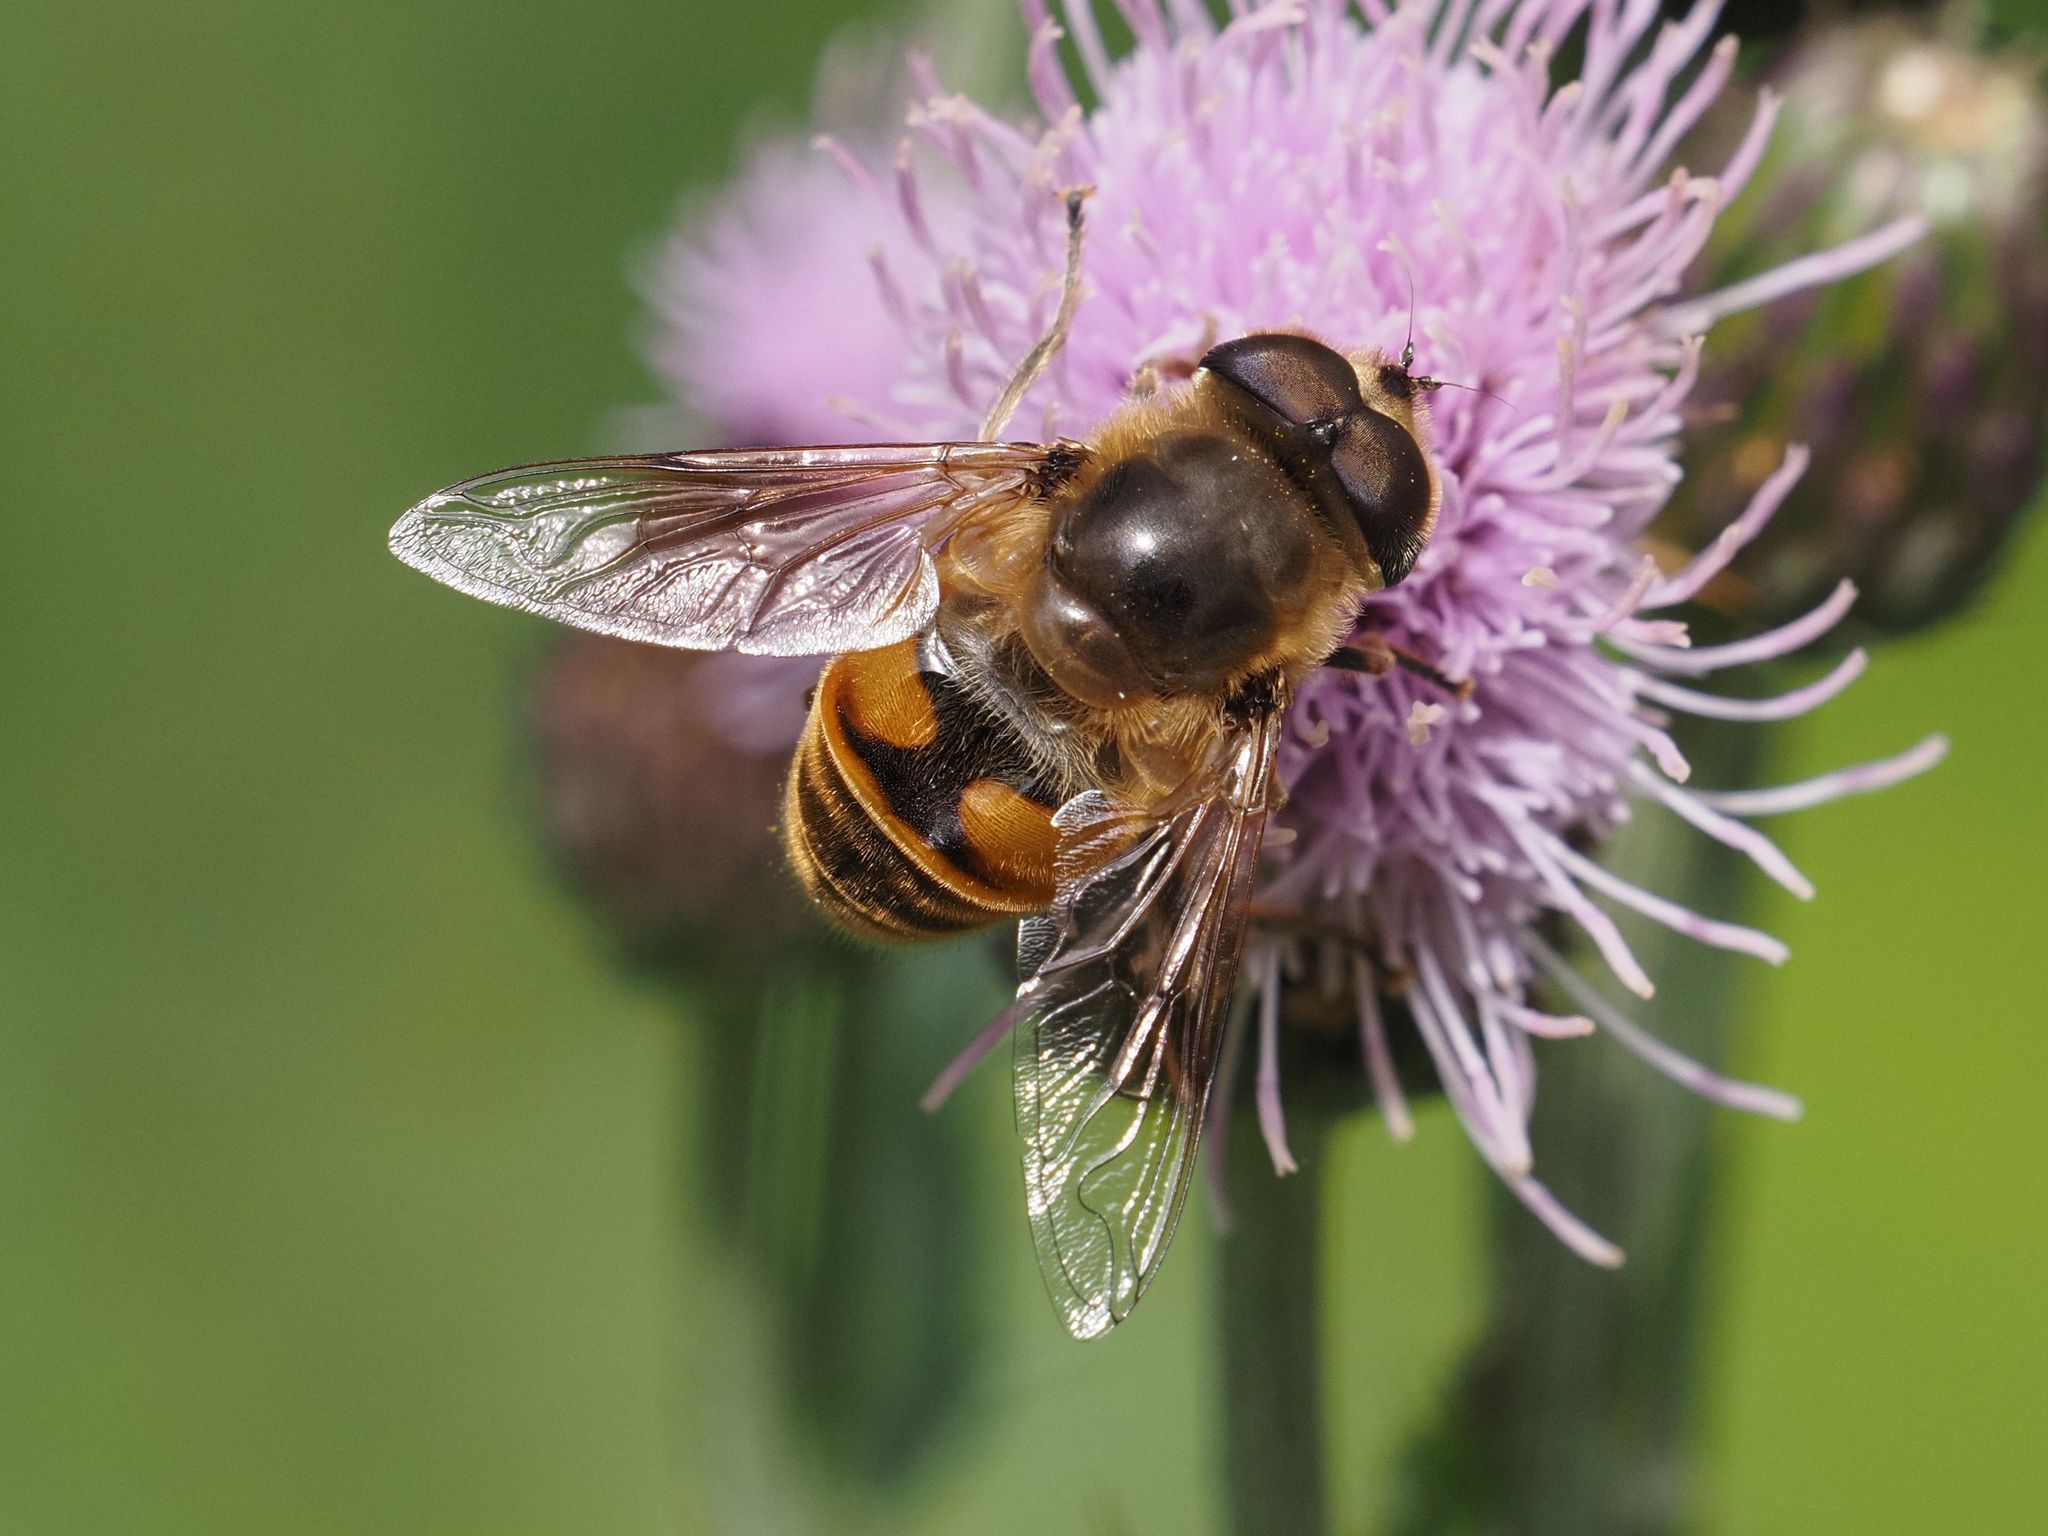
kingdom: Animalia
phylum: Arthropoda
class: Insecta
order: Diptera
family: Syrphidae
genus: Eristalis
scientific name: Eristalis tenax
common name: Drone fly
